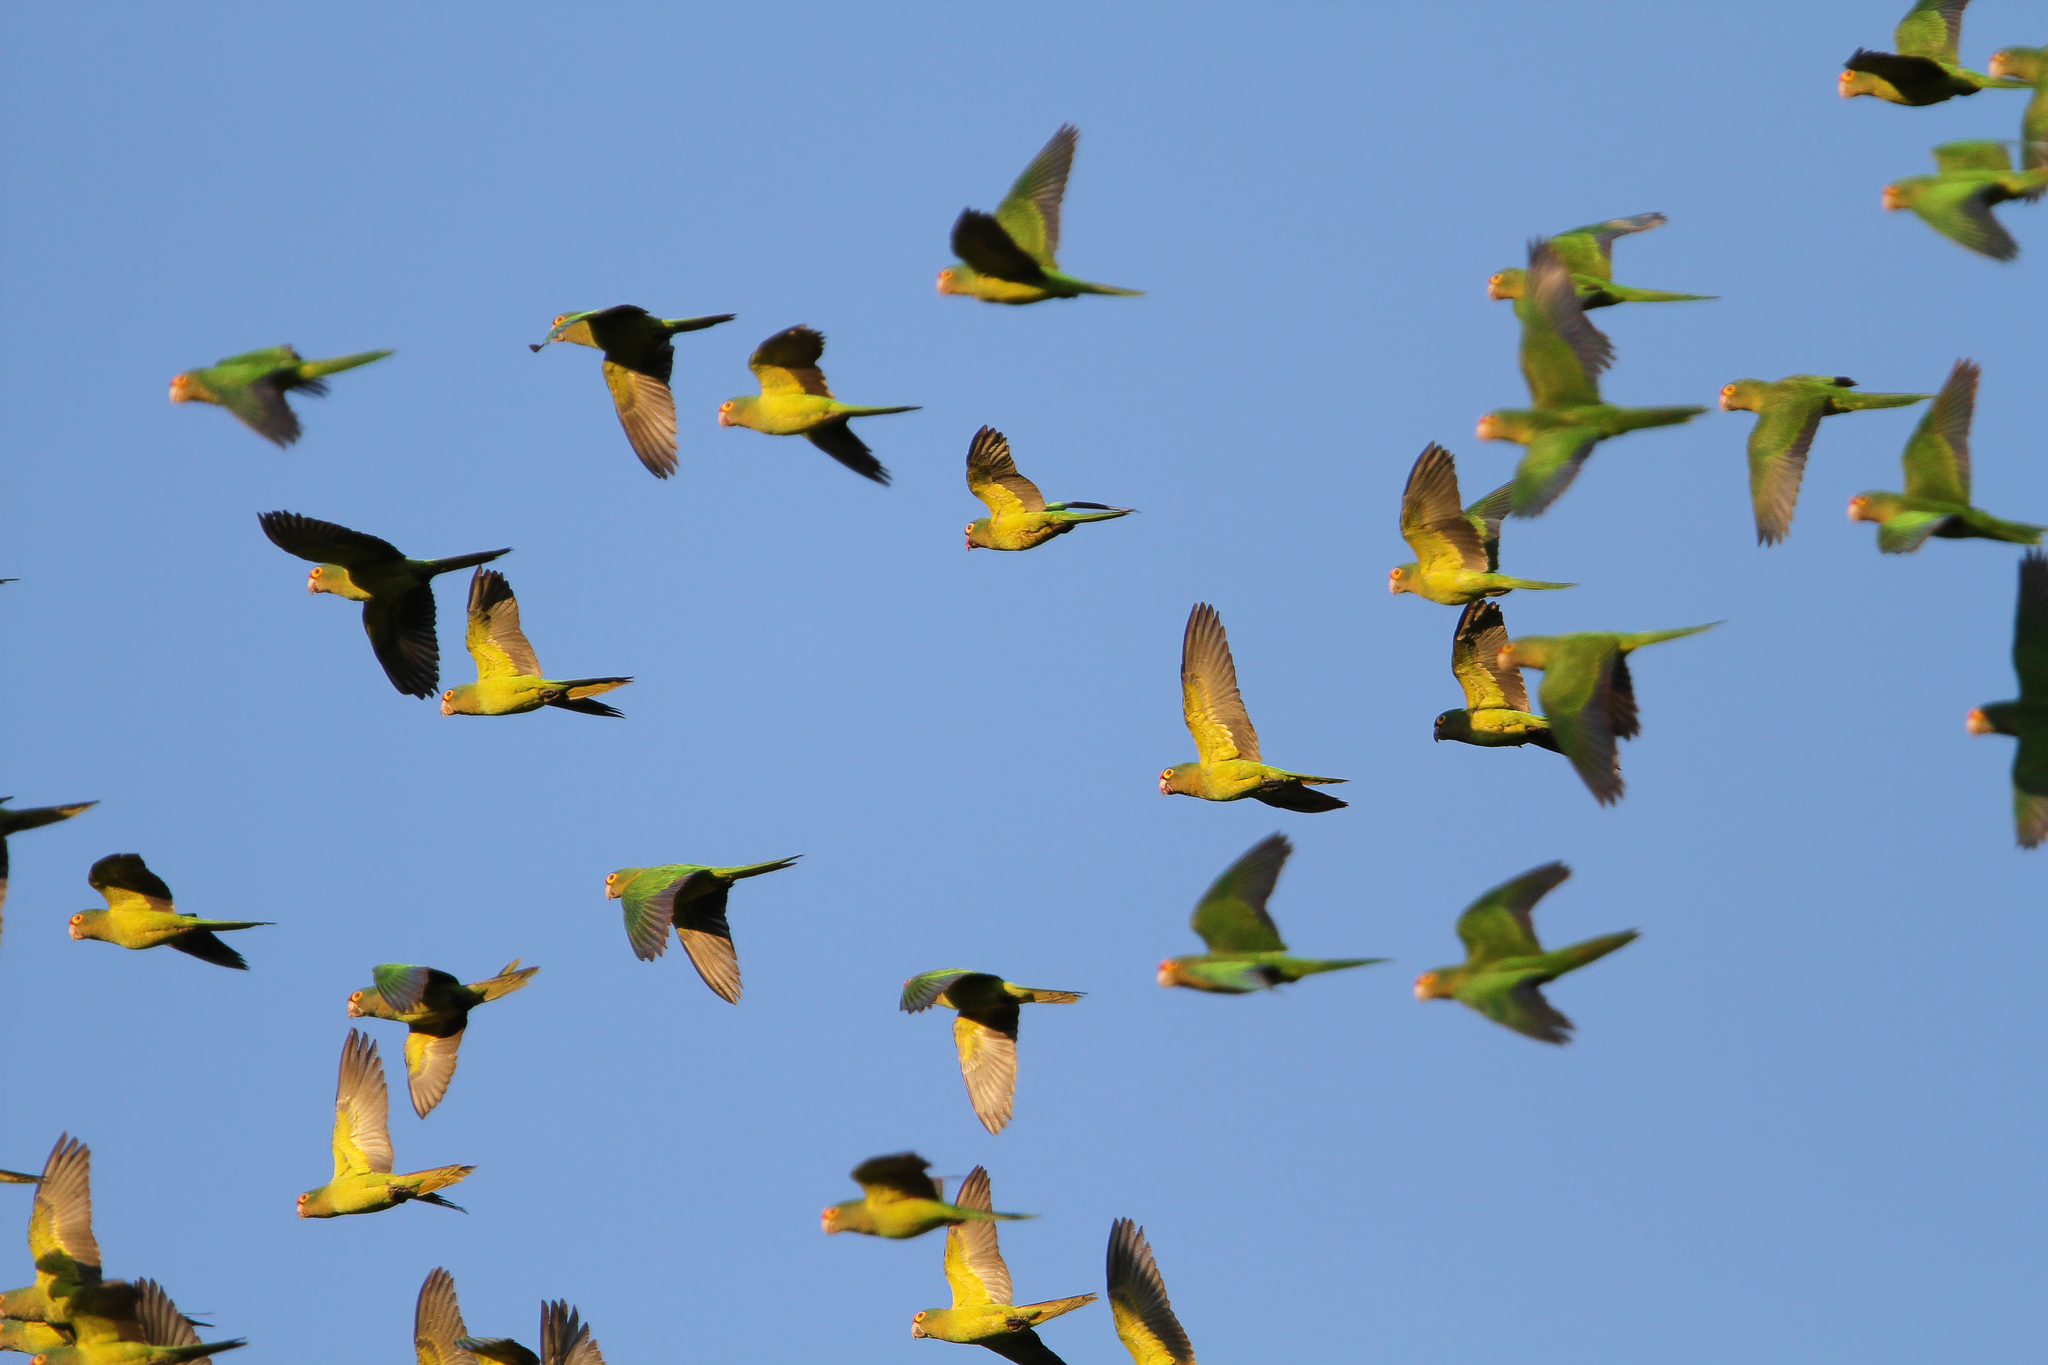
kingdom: Animalia
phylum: Chordata
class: Aves
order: Psittaciformes
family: Psittacidae
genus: Aratinga
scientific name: Aratinga canicularis
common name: Orange-fronted parakeet
